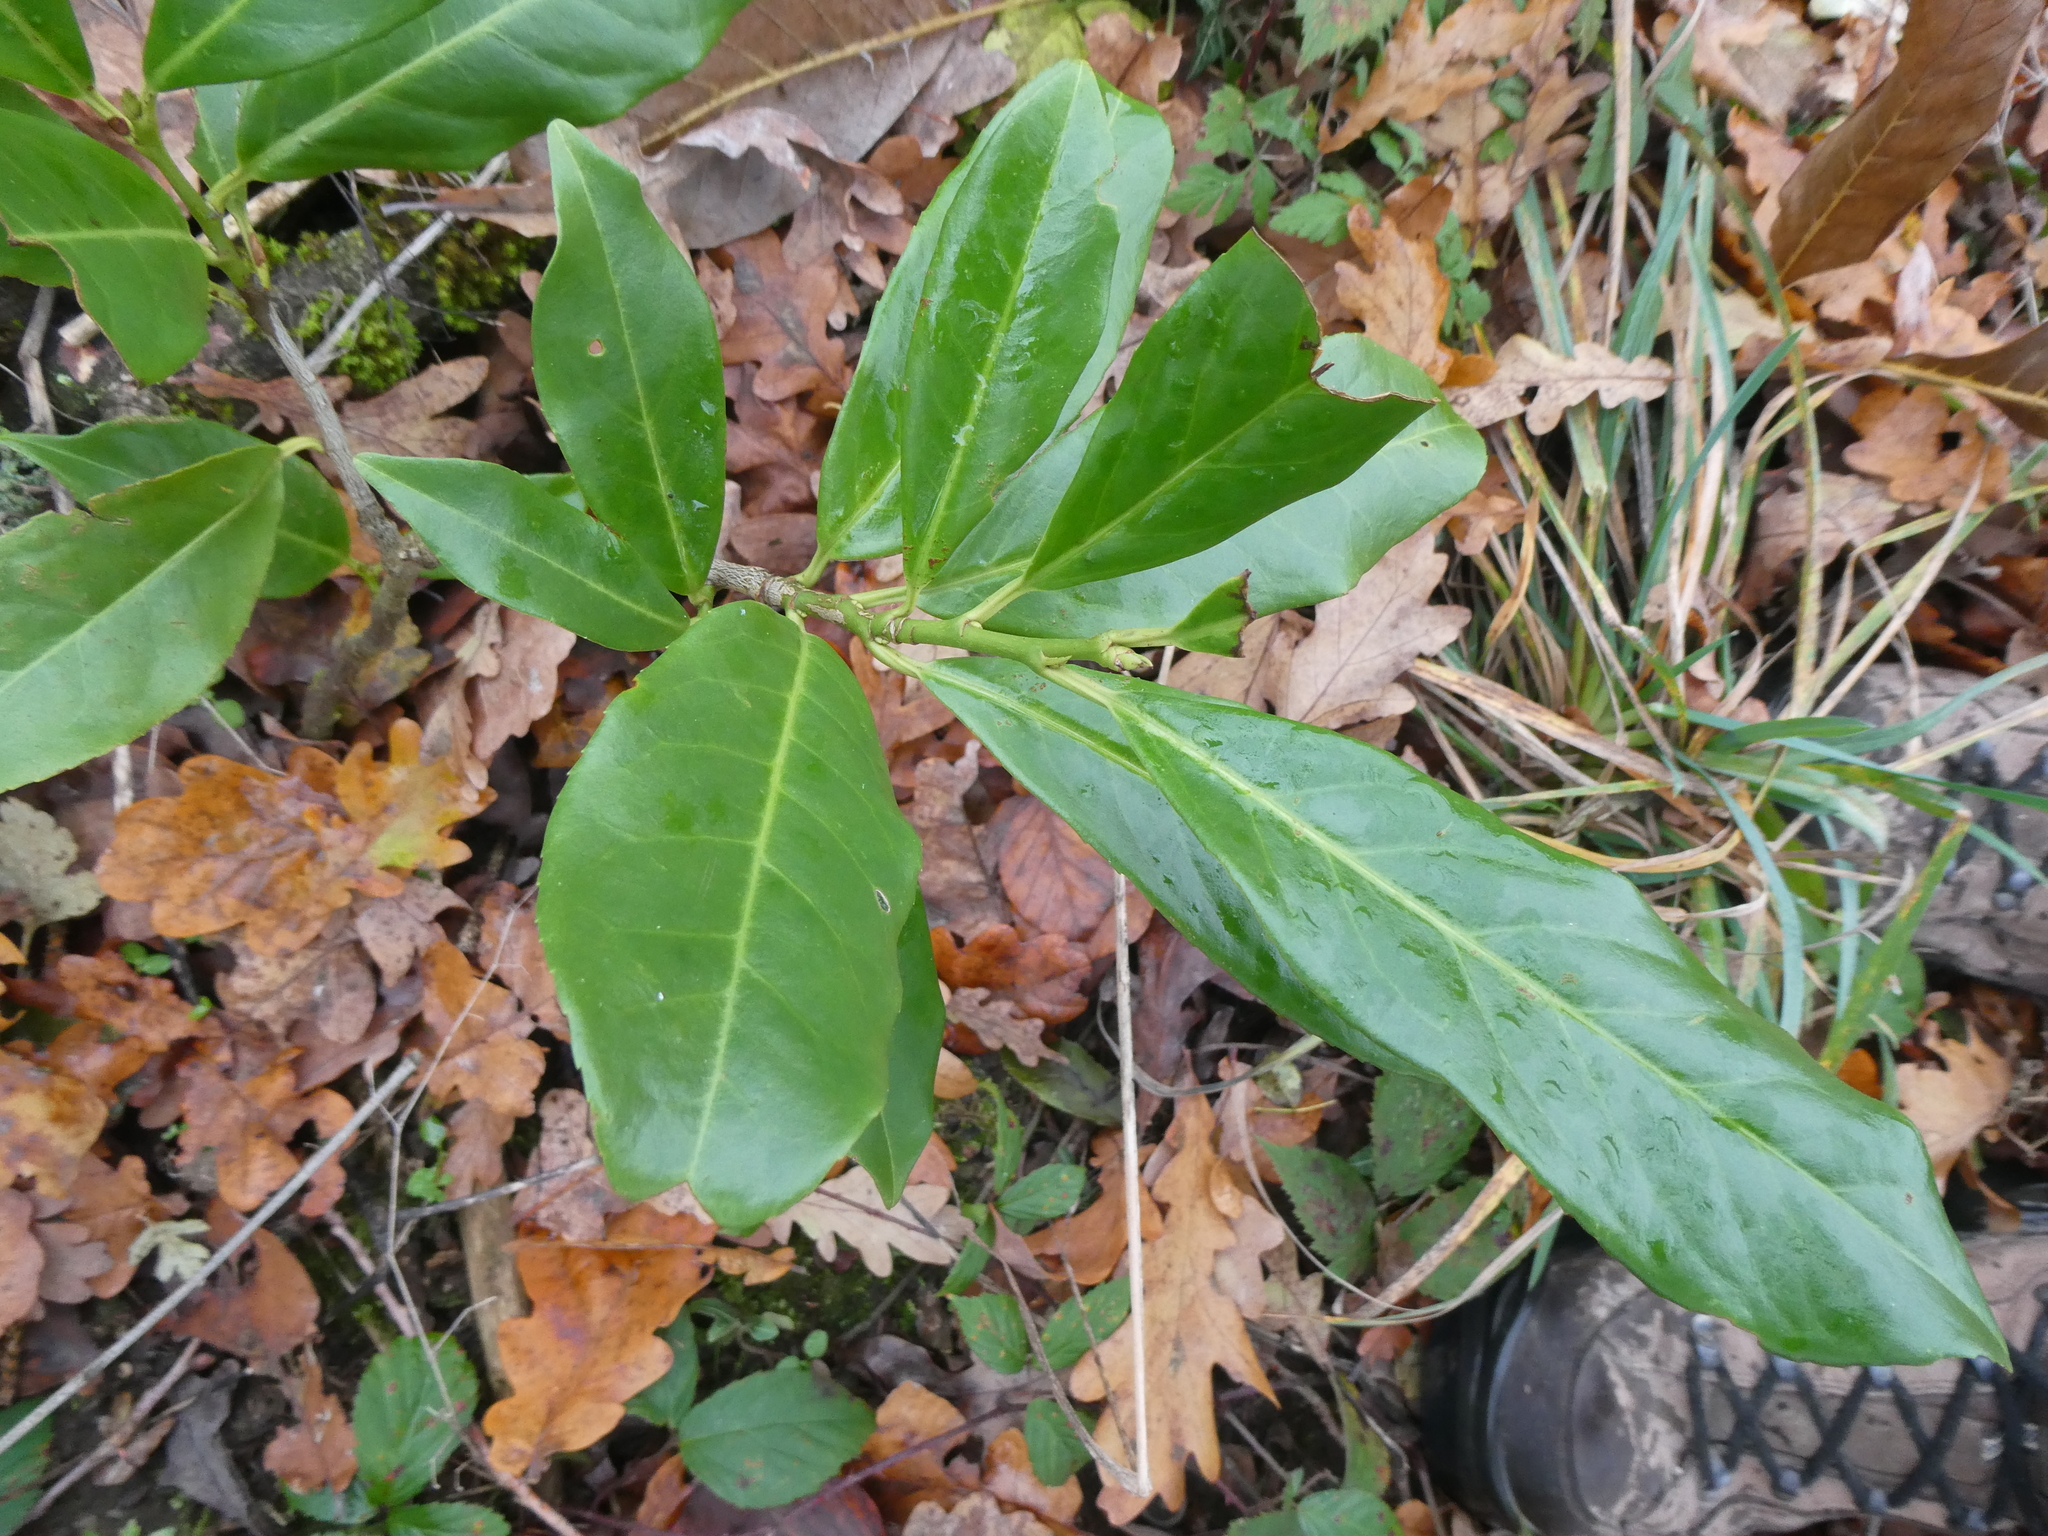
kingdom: Plantae
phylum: Tracheophyta
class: Magnoliopsida
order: Rosales
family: Rosaceae
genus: Prunus
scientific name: Prunus laurocerasus
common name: Cherry laurel
